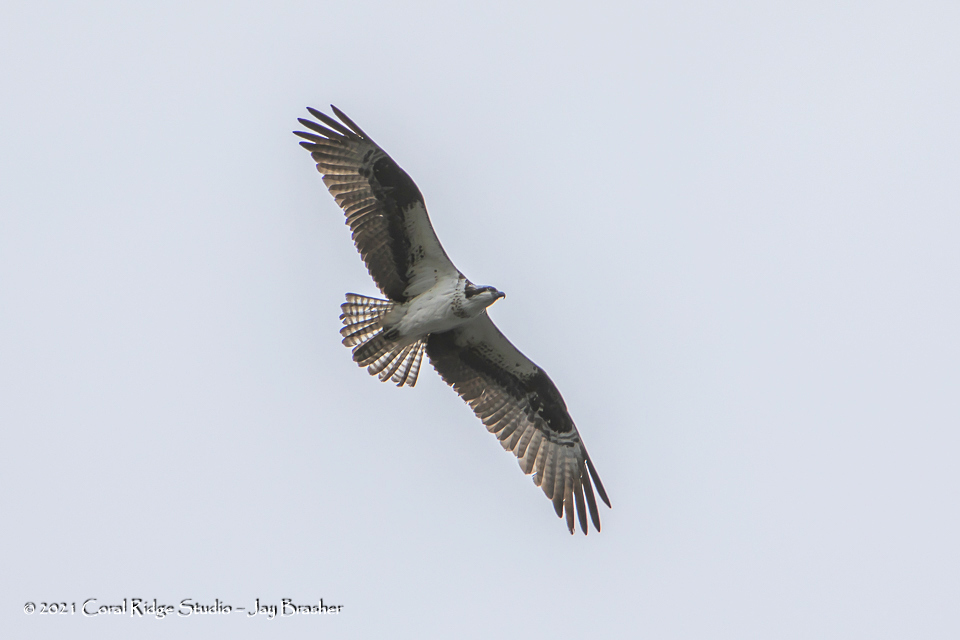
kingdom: Animalia
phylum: Chordata
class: Aves
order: Accipitriformes
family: Pandionidae
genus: Pandion
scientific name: Pandion haliaetus
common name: Osprey
